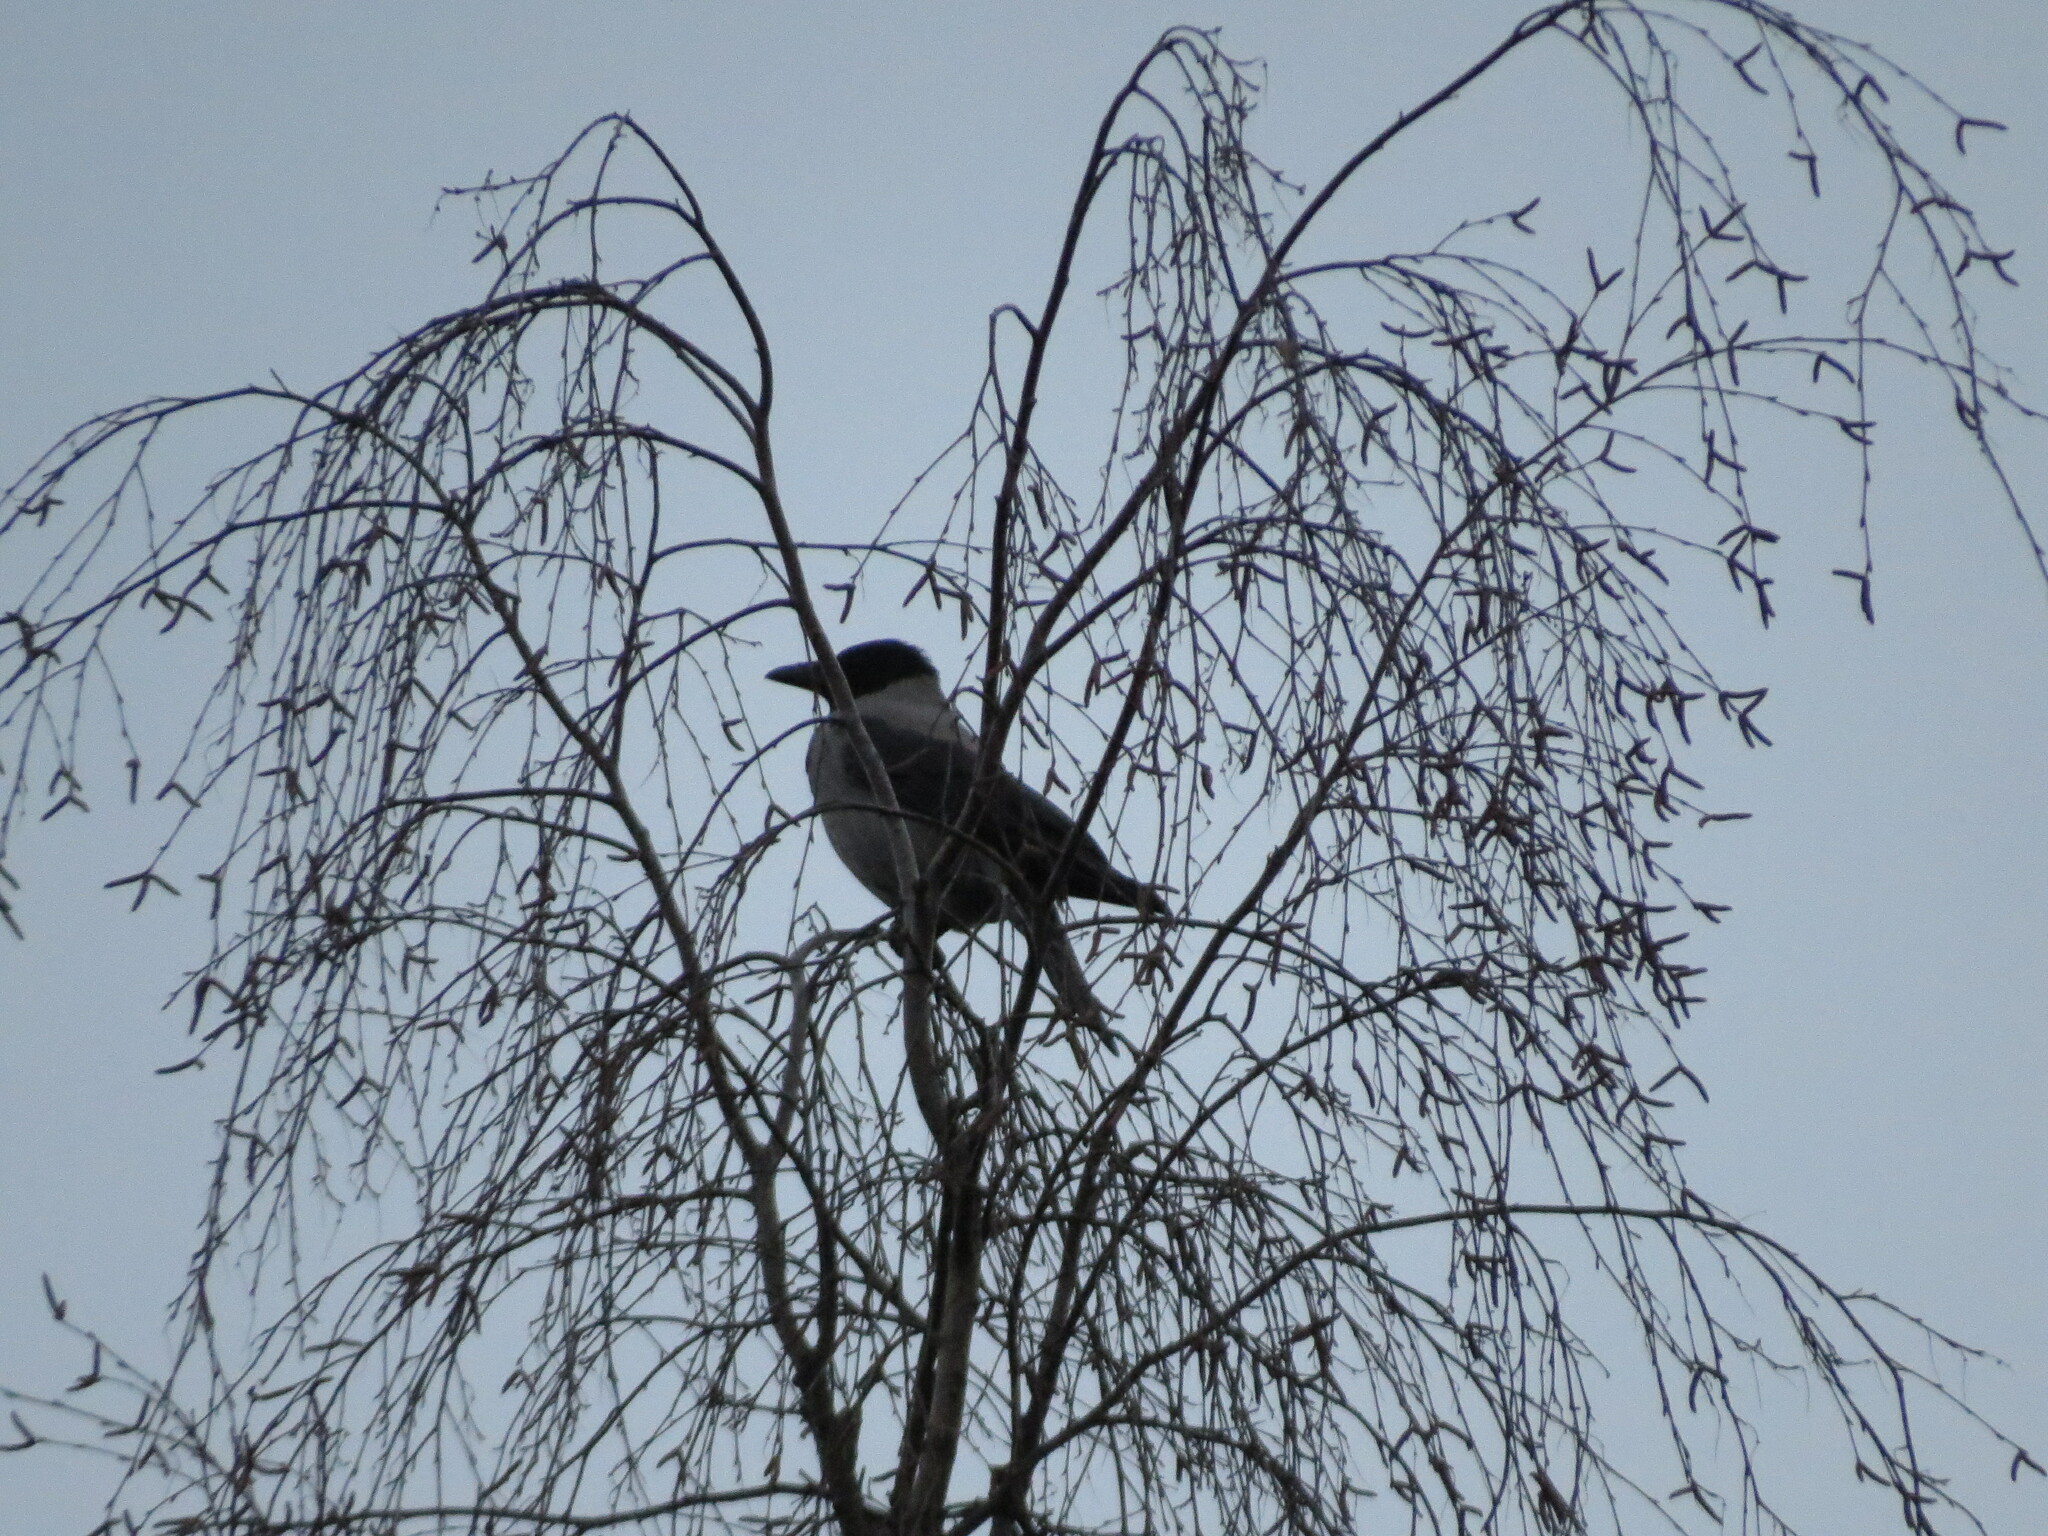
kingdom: Animalia
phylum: Chordata
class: Aves
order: Passeriformes
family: Corvidae
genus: Corvus
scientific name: Corvus cornix
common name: Hooded crow
